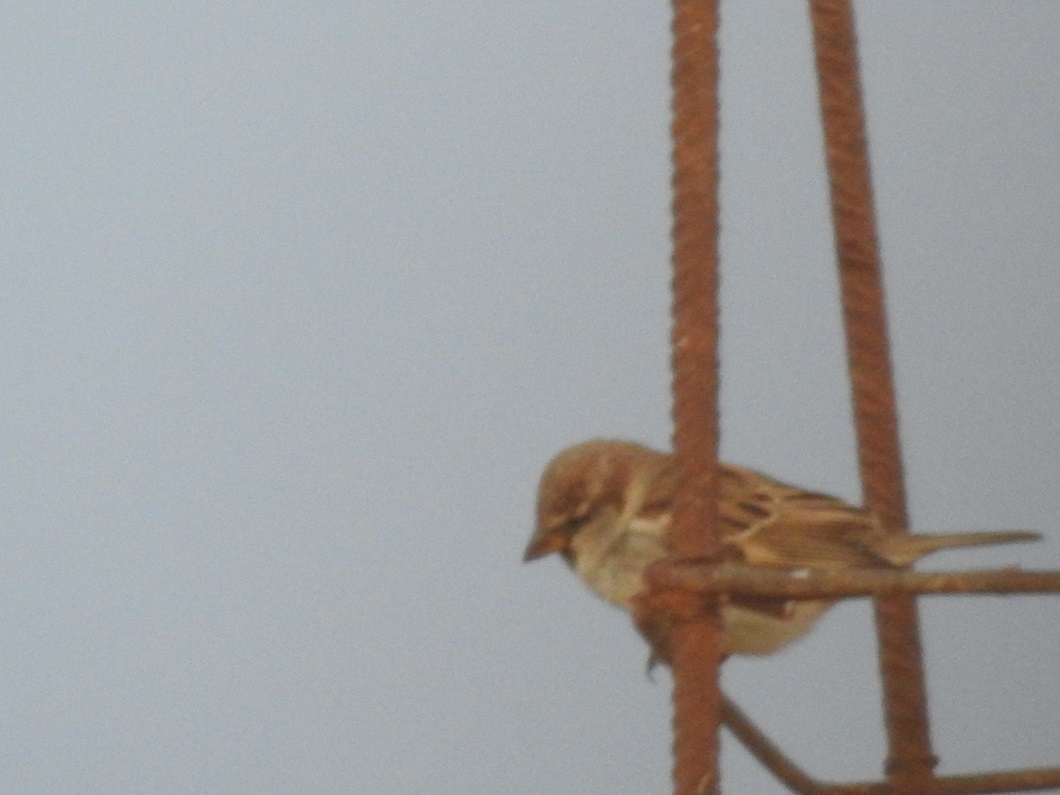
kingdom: Animalia
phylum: Chordata
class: Aves
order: Passeriformes
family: Passeridae
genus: Passer
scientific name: Passer domesticus
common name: House sparrow
